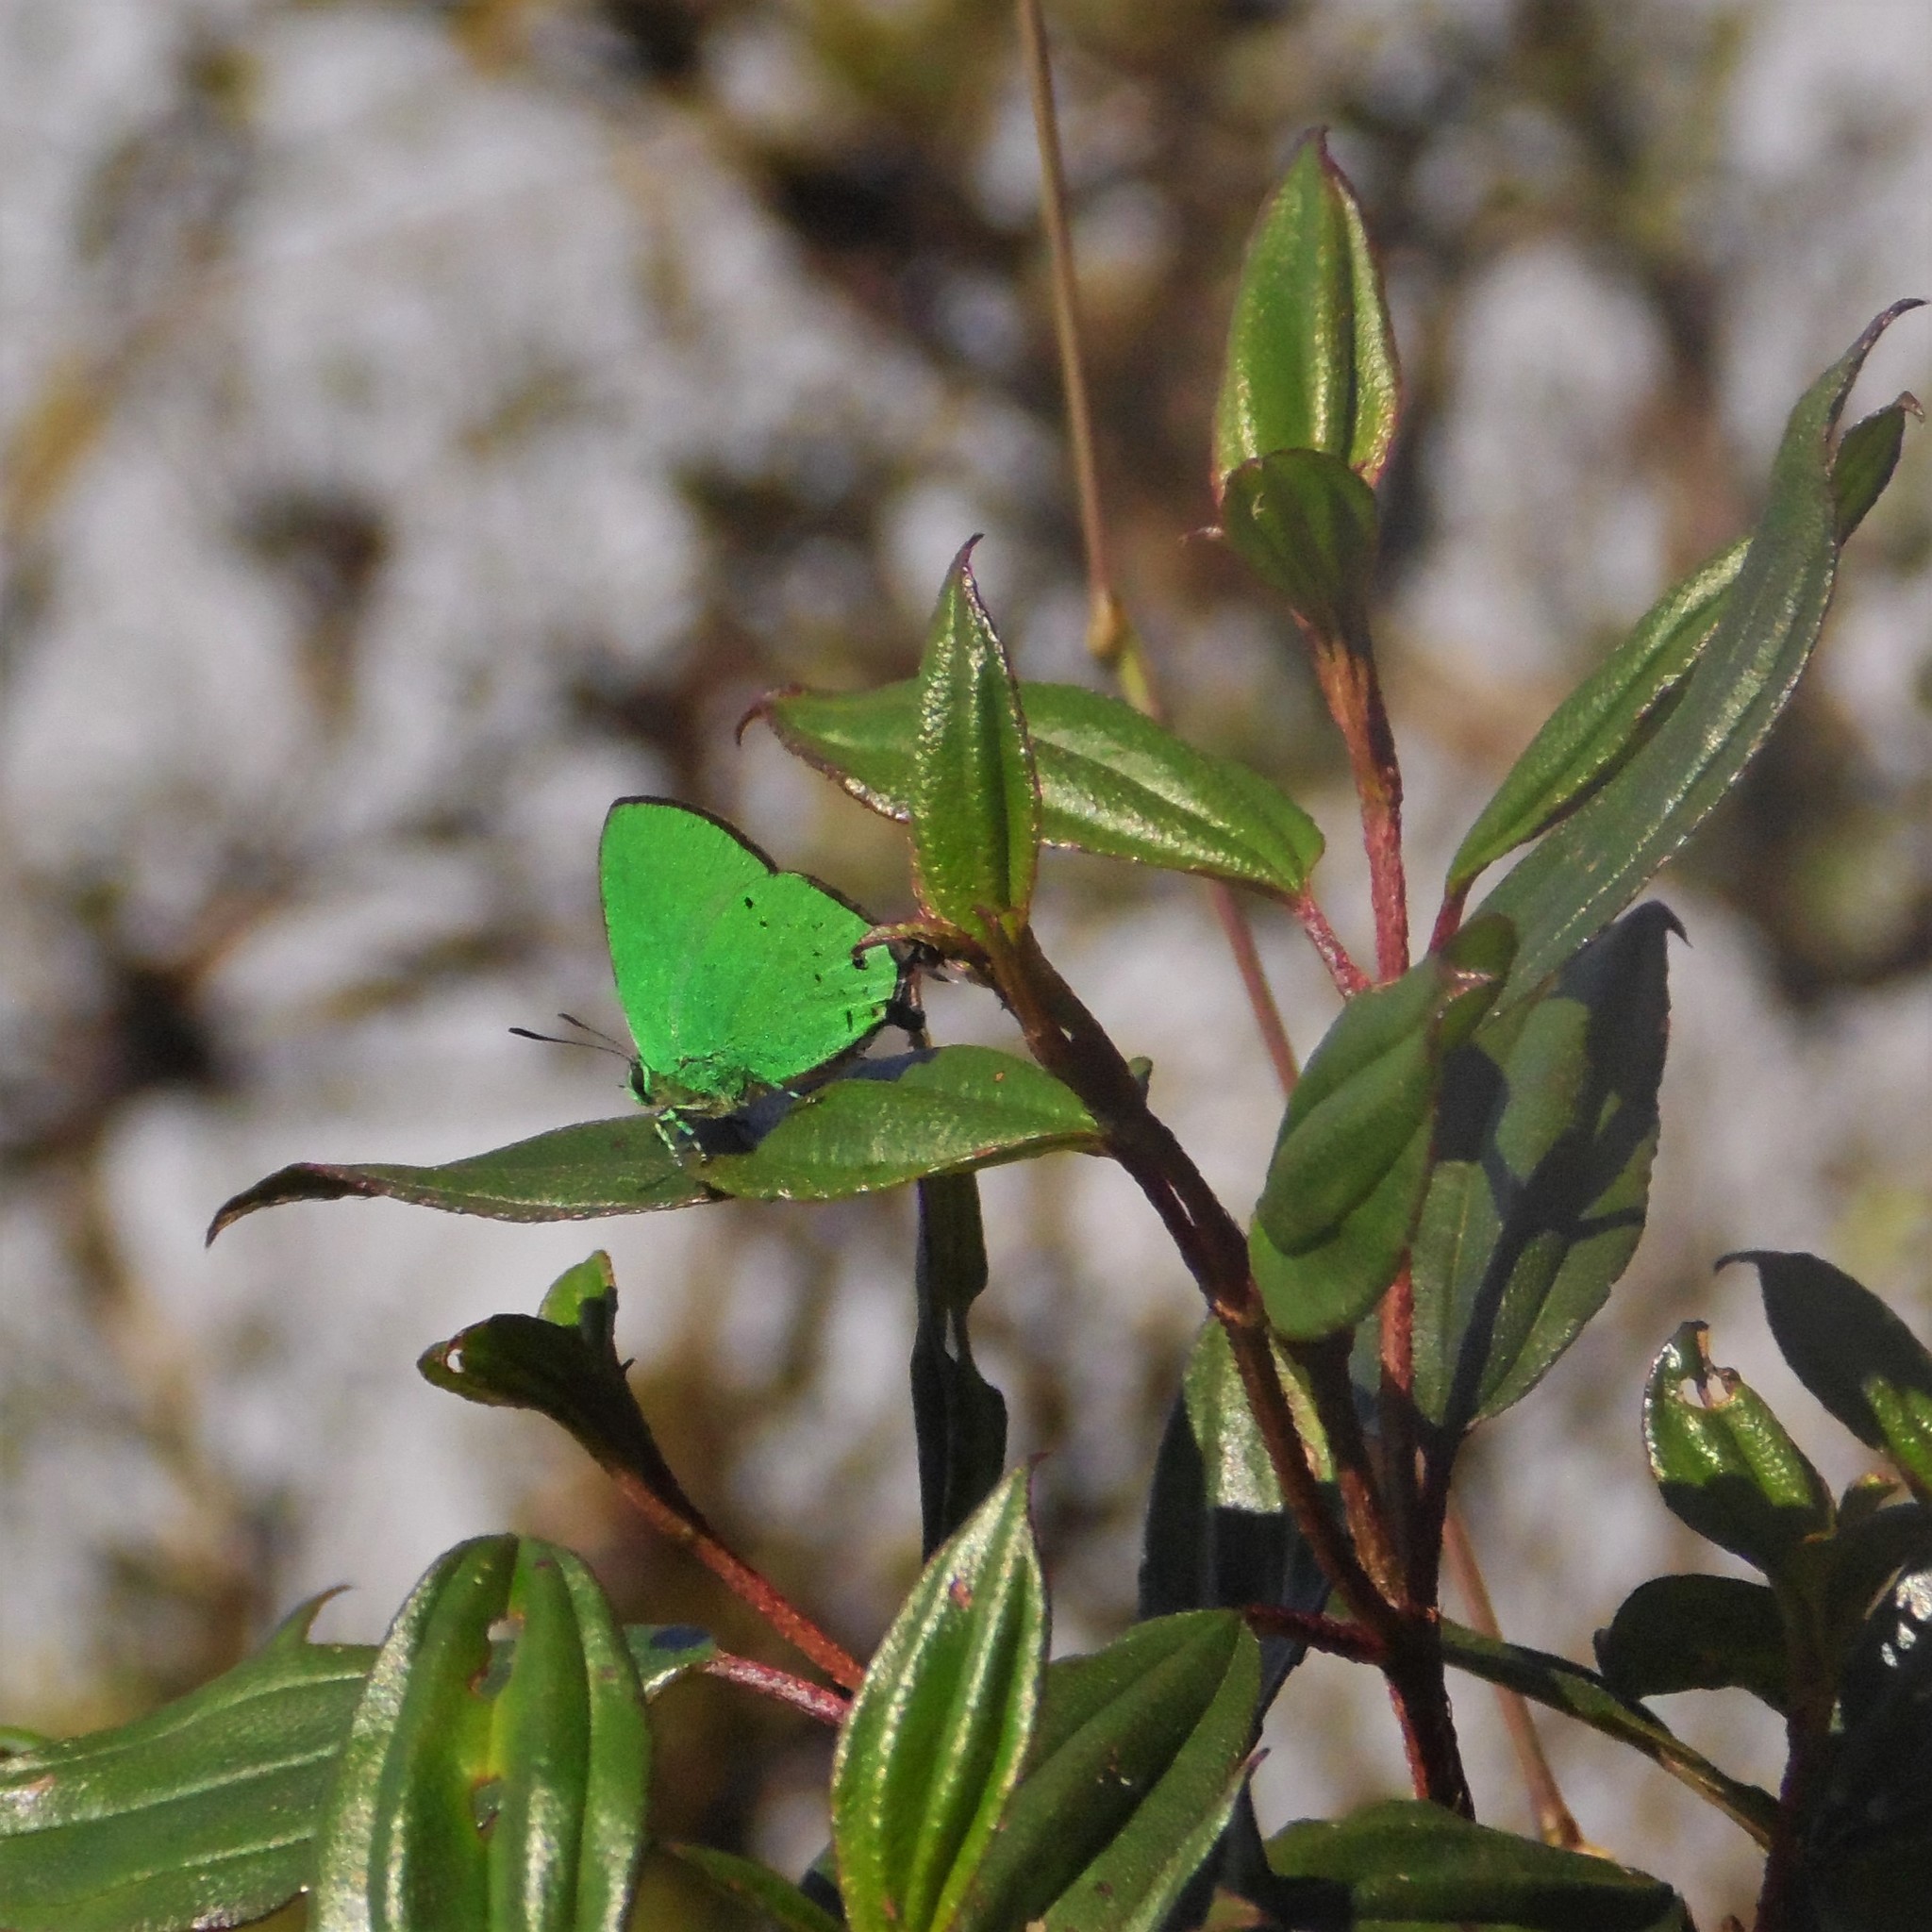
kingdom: Animalia
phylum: Arthropoda
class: Insecta
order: Lepidoptera
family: Lycaenidae
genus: Chalybs
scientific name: Chalybs
